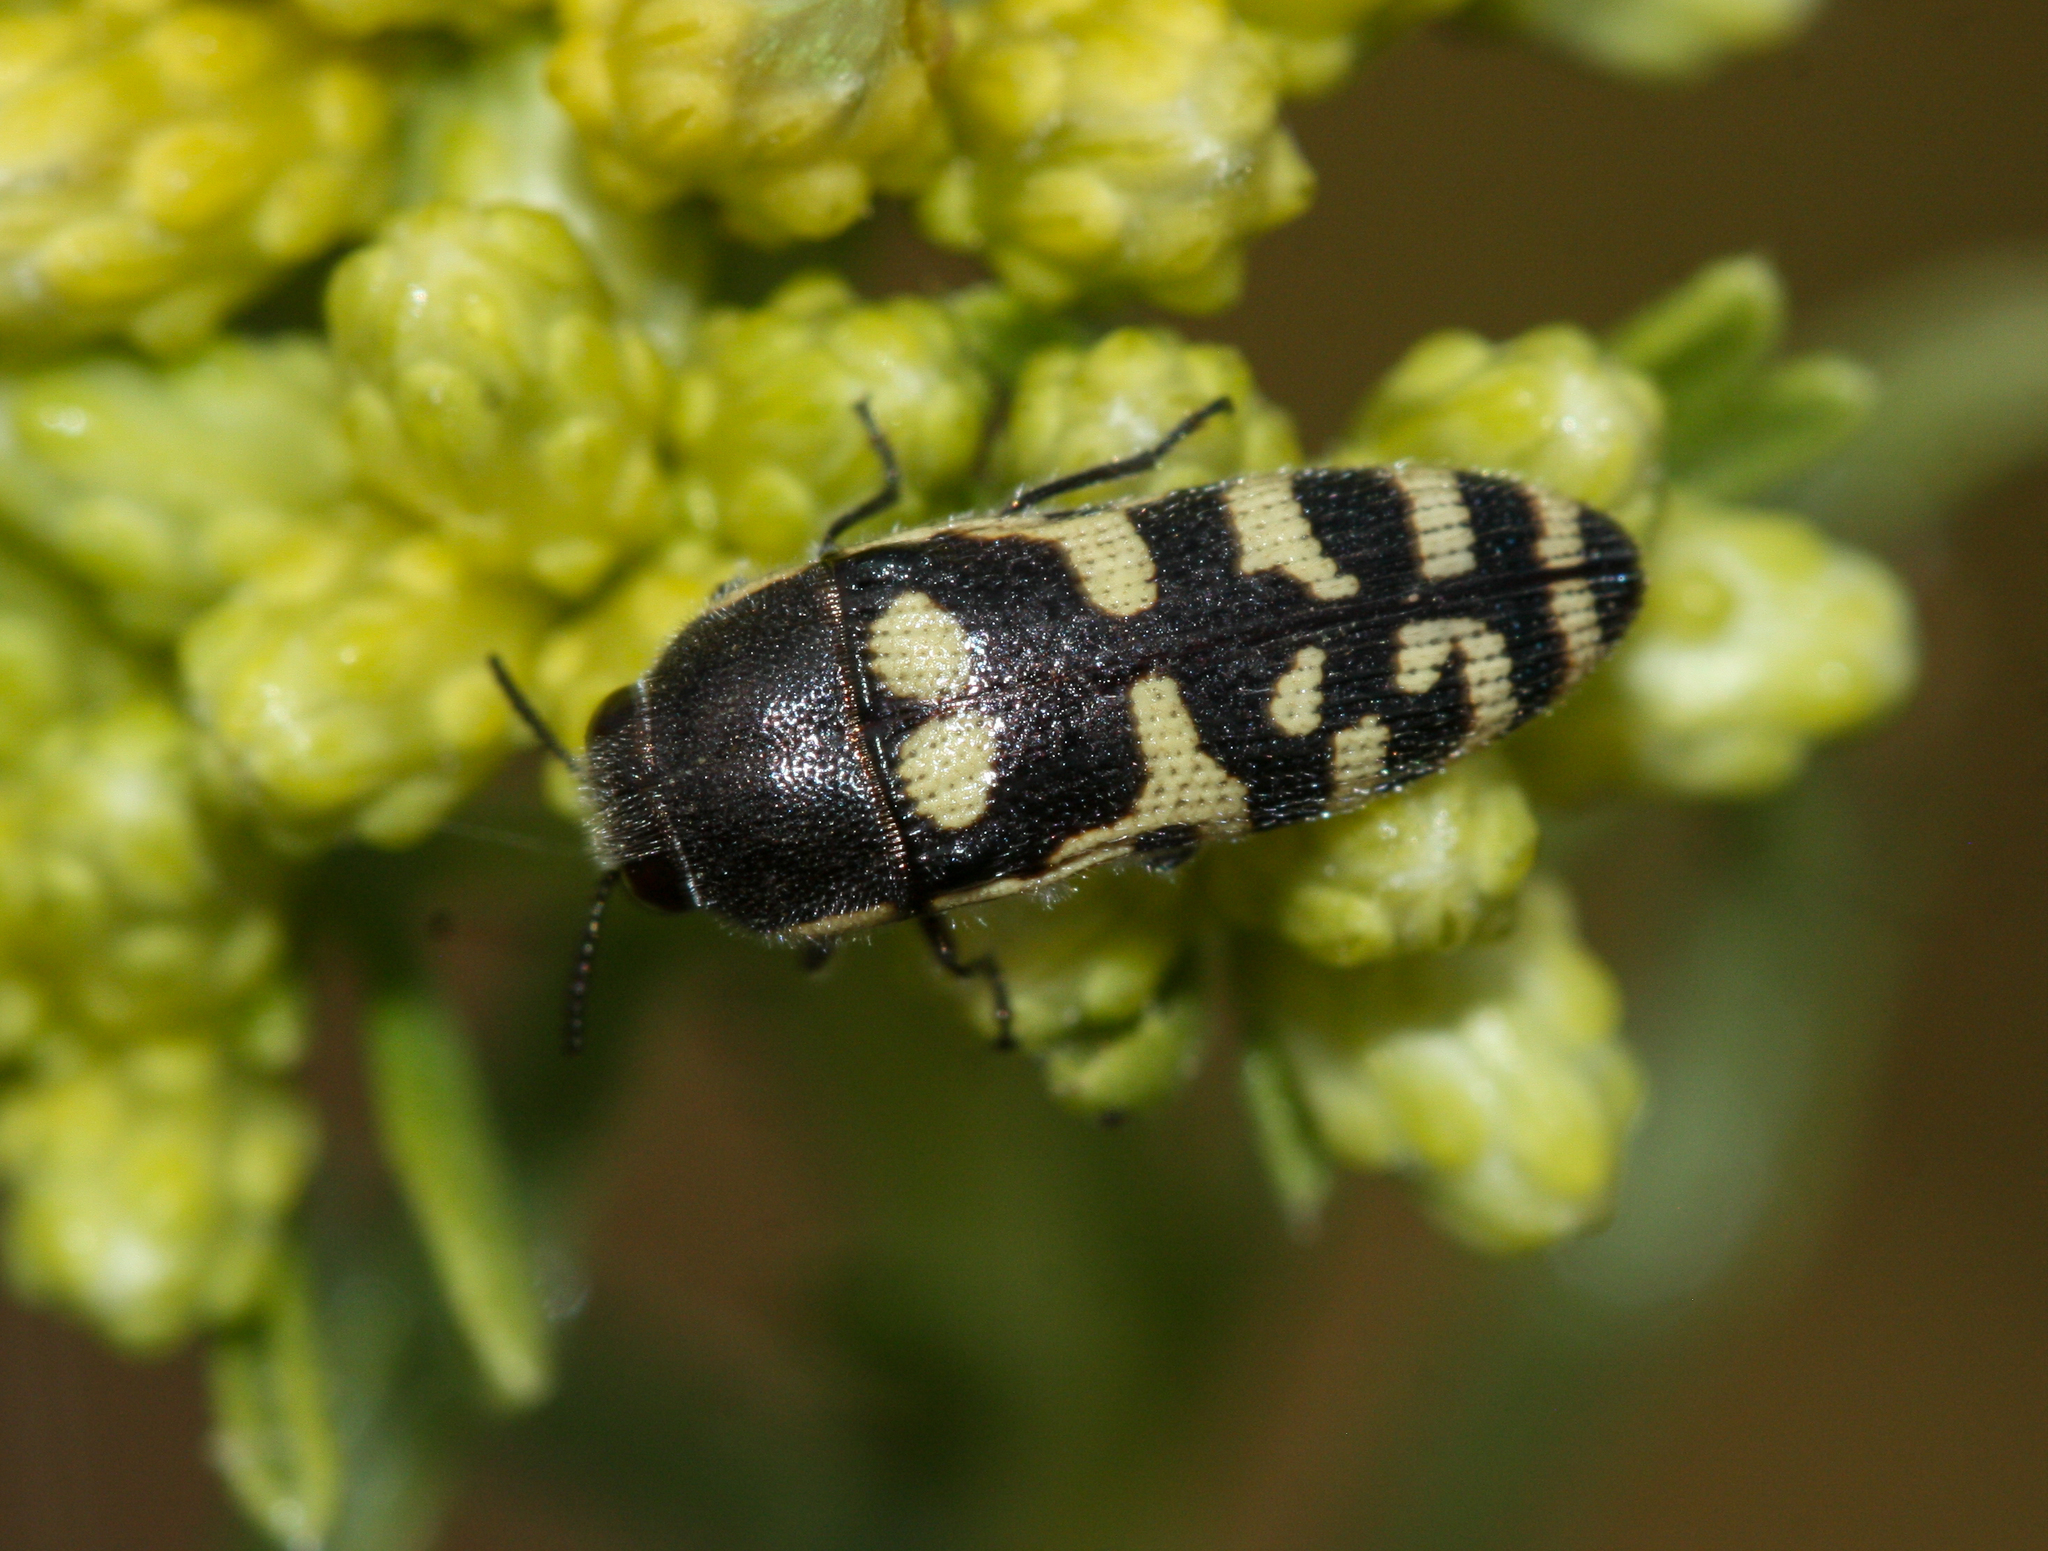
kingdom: Animalia
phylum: Arthropoda
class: Insecta
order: Coleoptera
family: Buprestidae
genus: Acmaeodera
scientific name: Acmaeodera alicia
